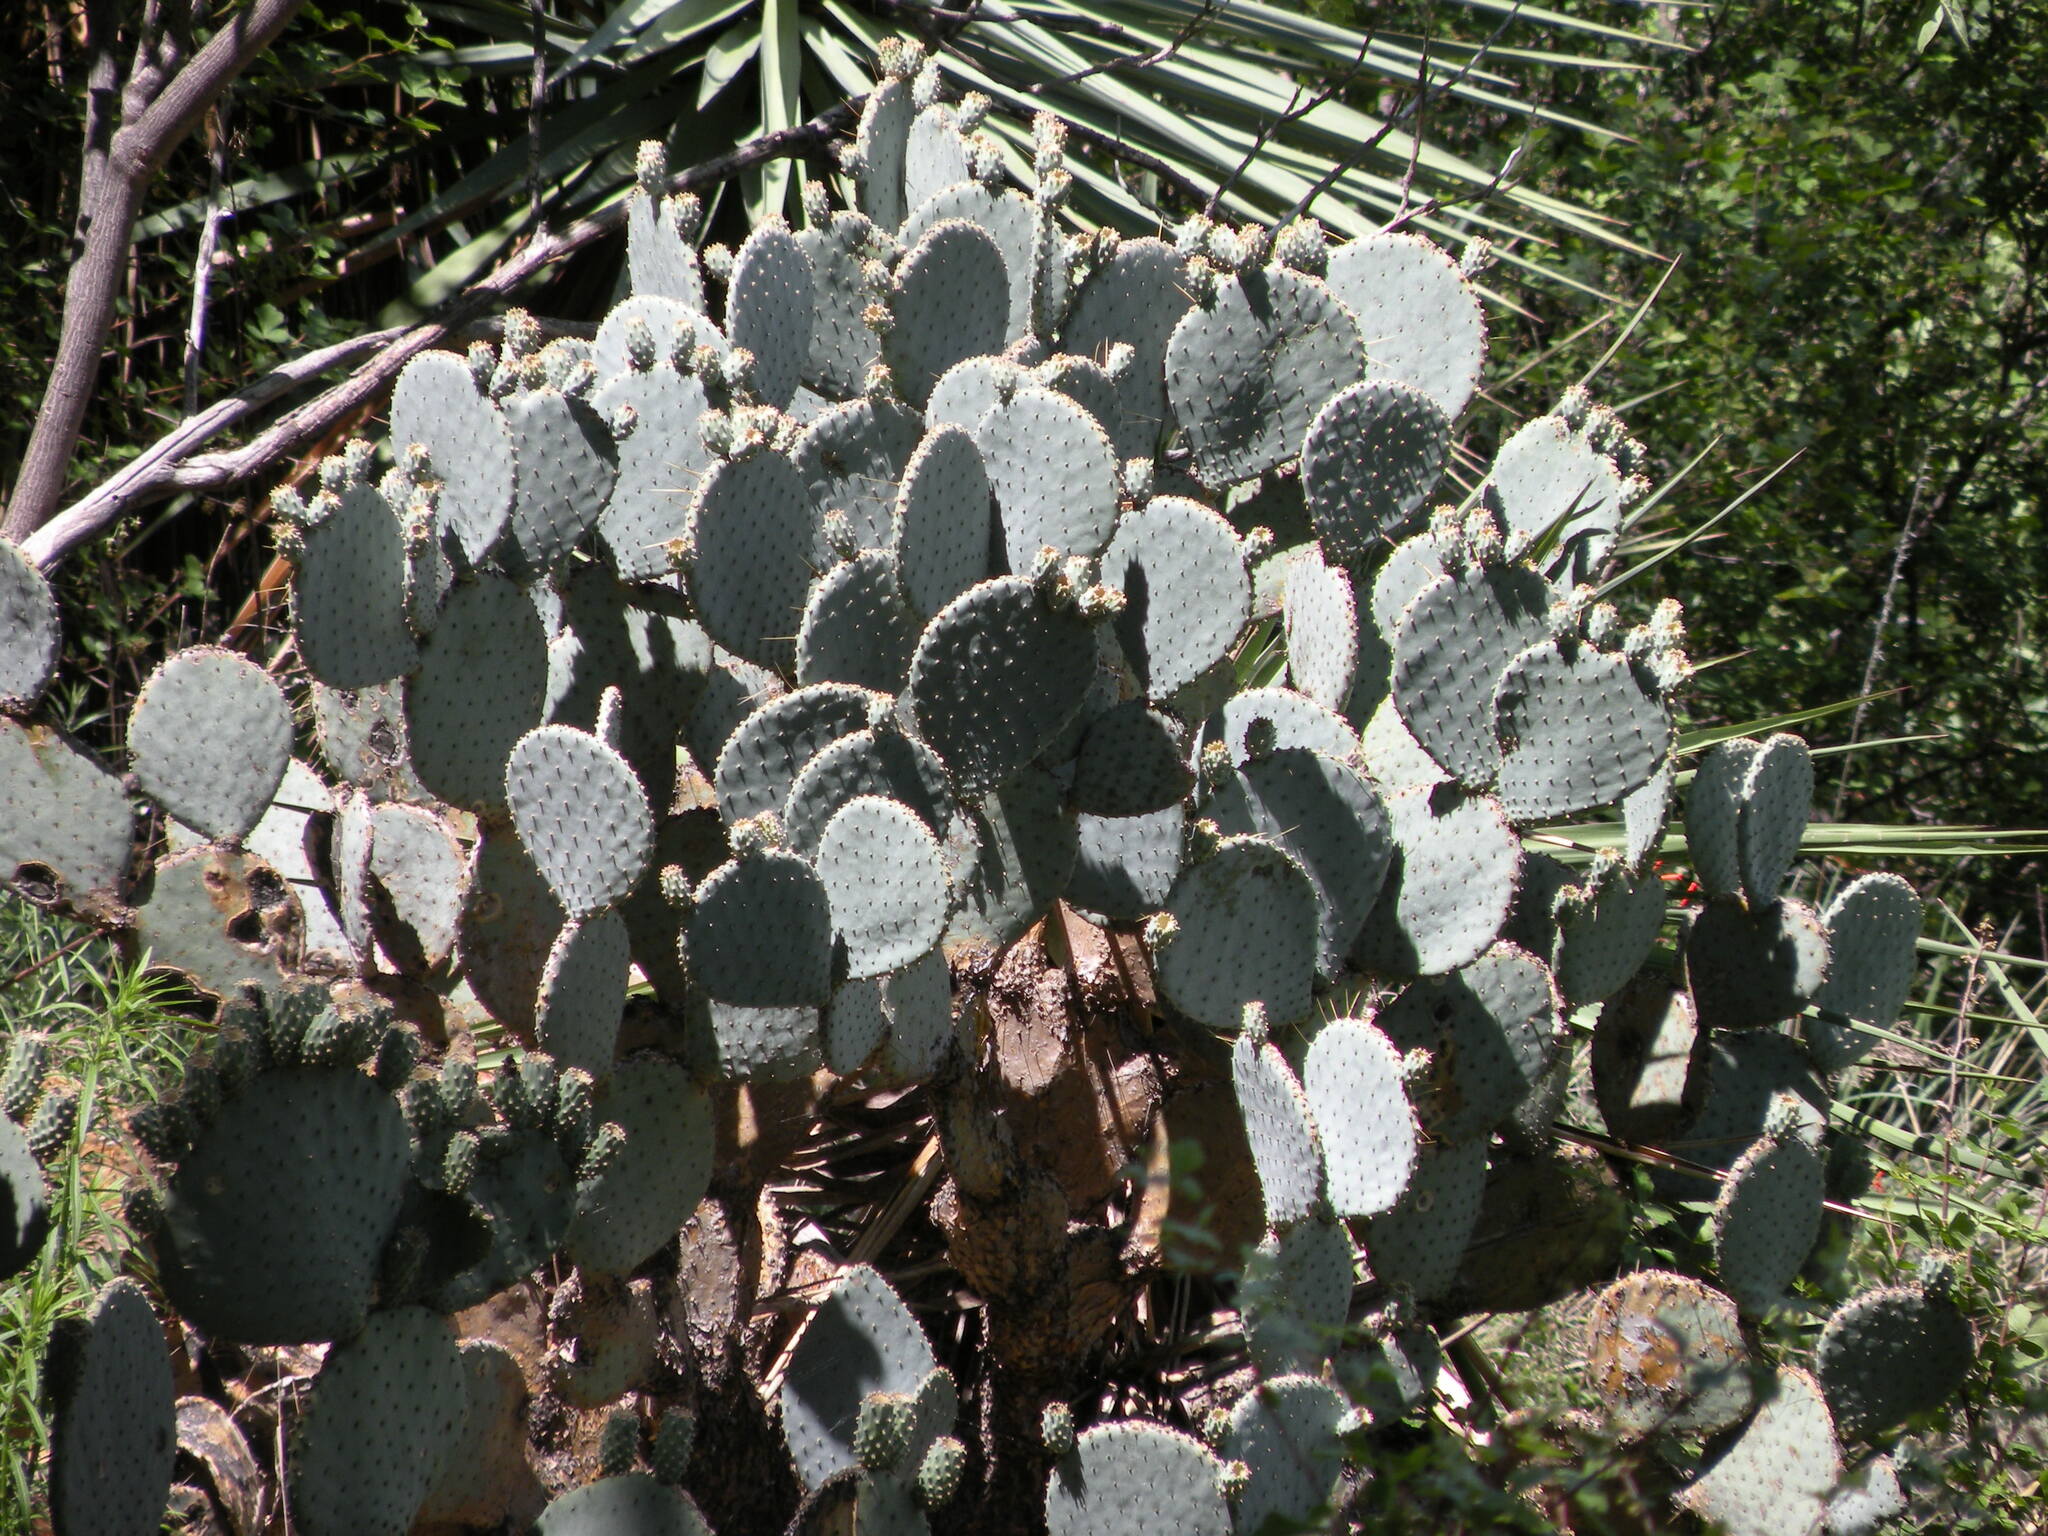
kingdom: Plantae
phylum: Tracheophyta
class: Magnoliopsida
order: Caryophyllales
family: Cactaceae
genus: Opuntia
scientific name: Opuntia chlorotica
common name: Dollar-joint prickly-pear
